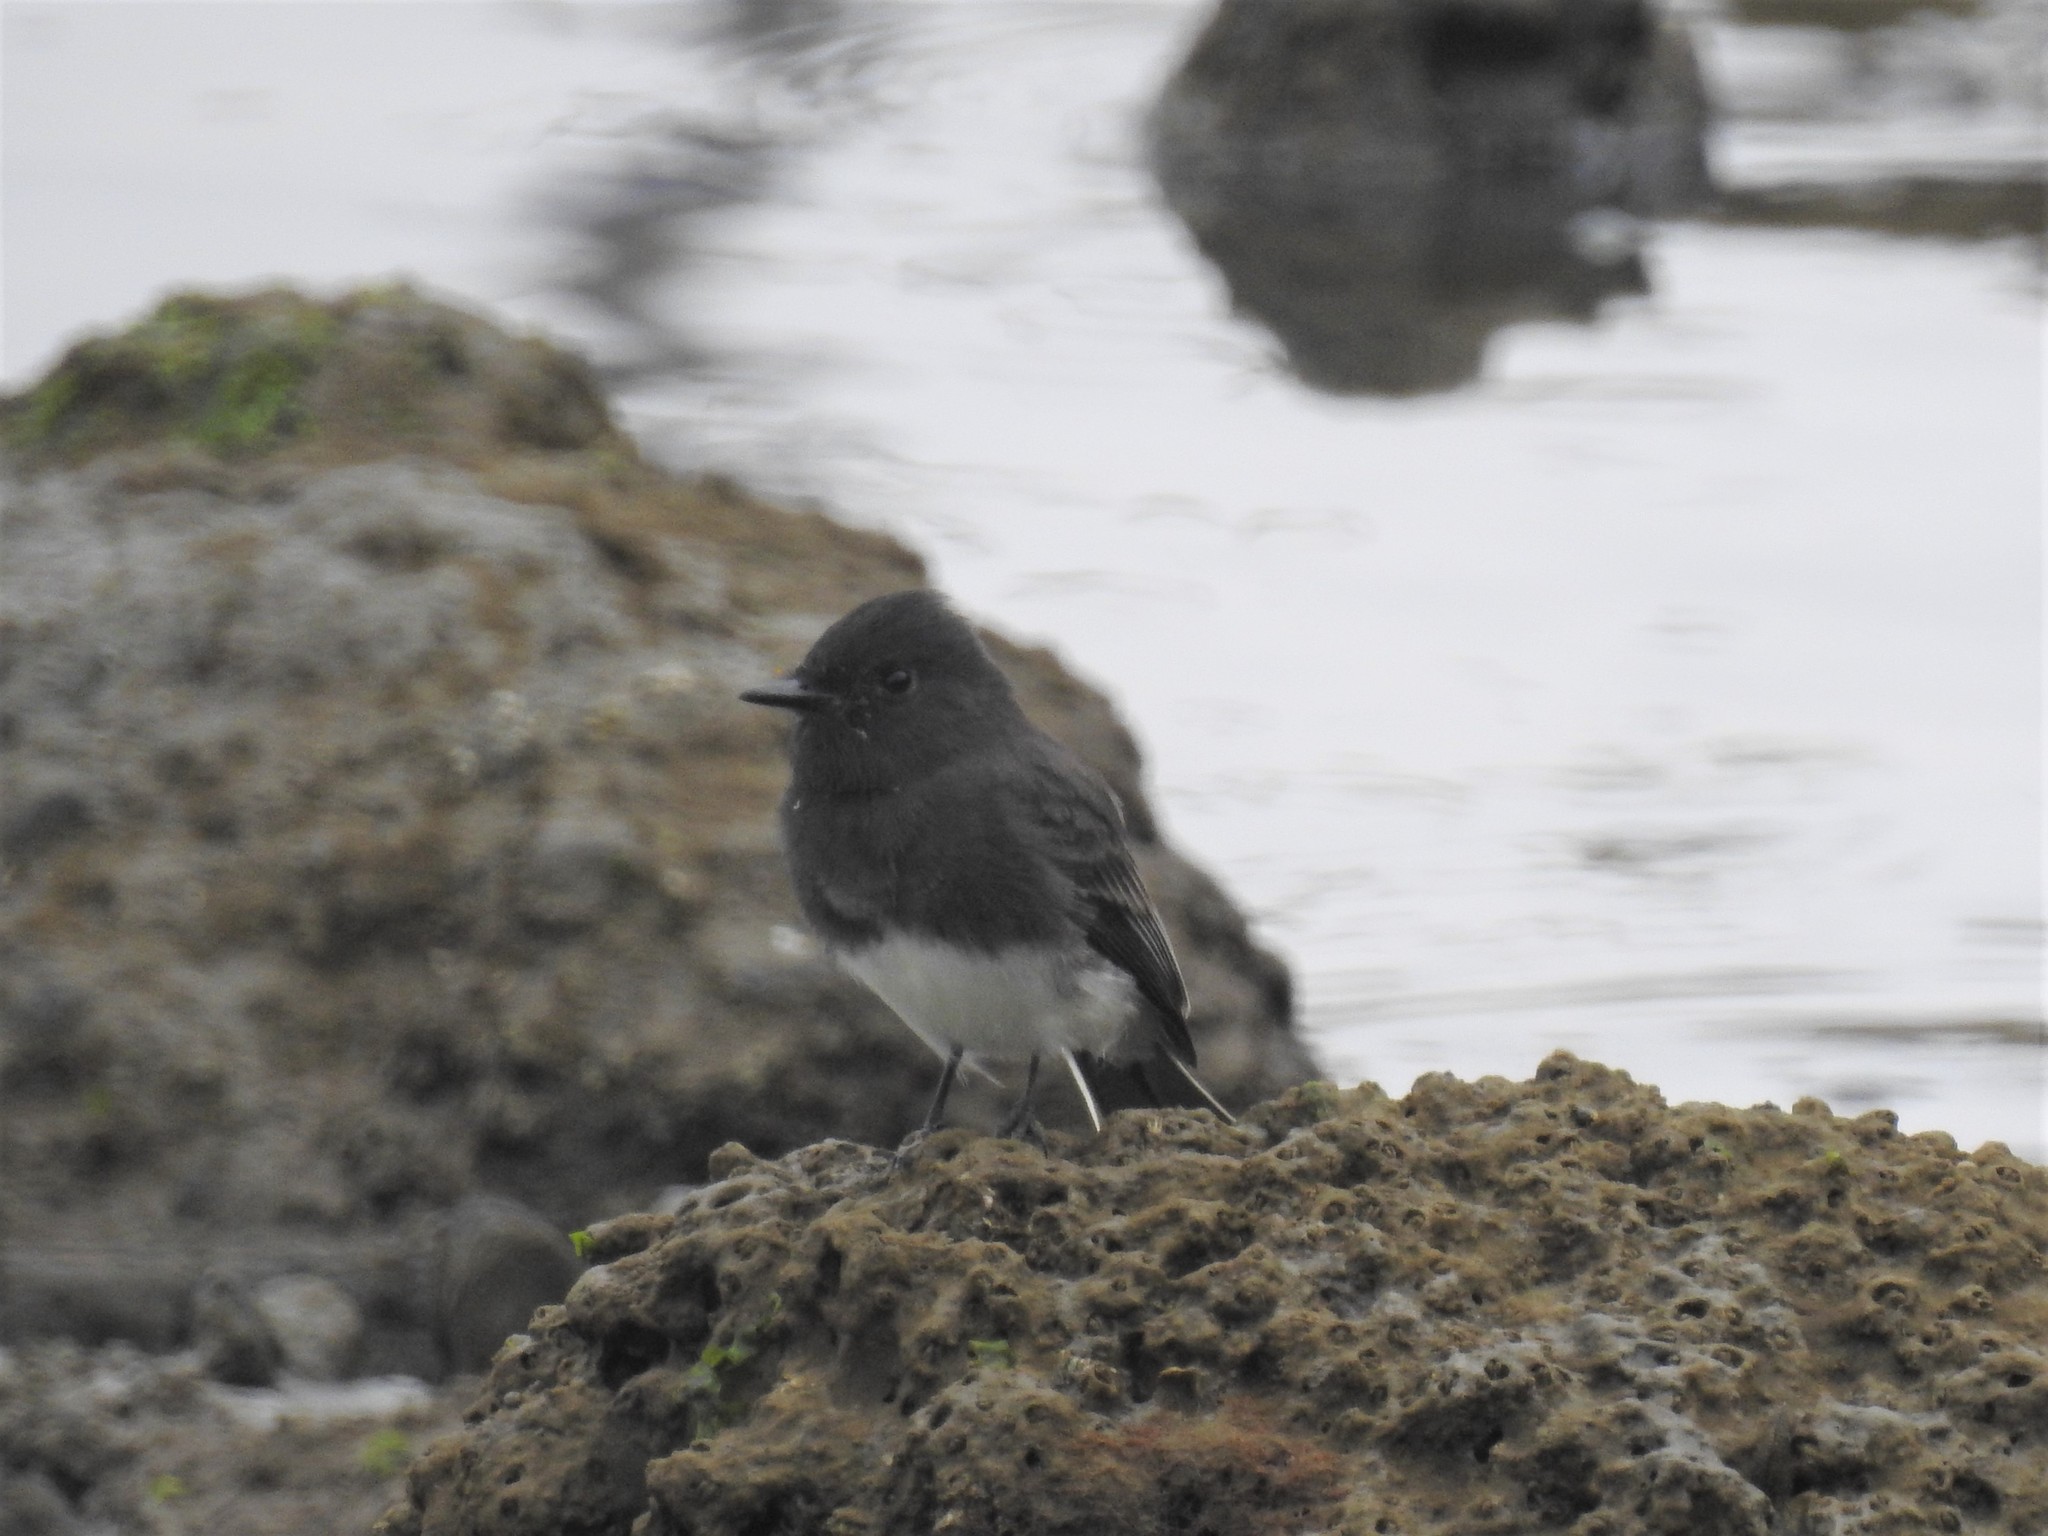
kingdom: Animalia
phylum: Chordata
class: Aves
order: Passeriformes
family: Tyrannidae
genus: Sayornis
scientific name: Sayornis nigricans
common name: Black phoebe
